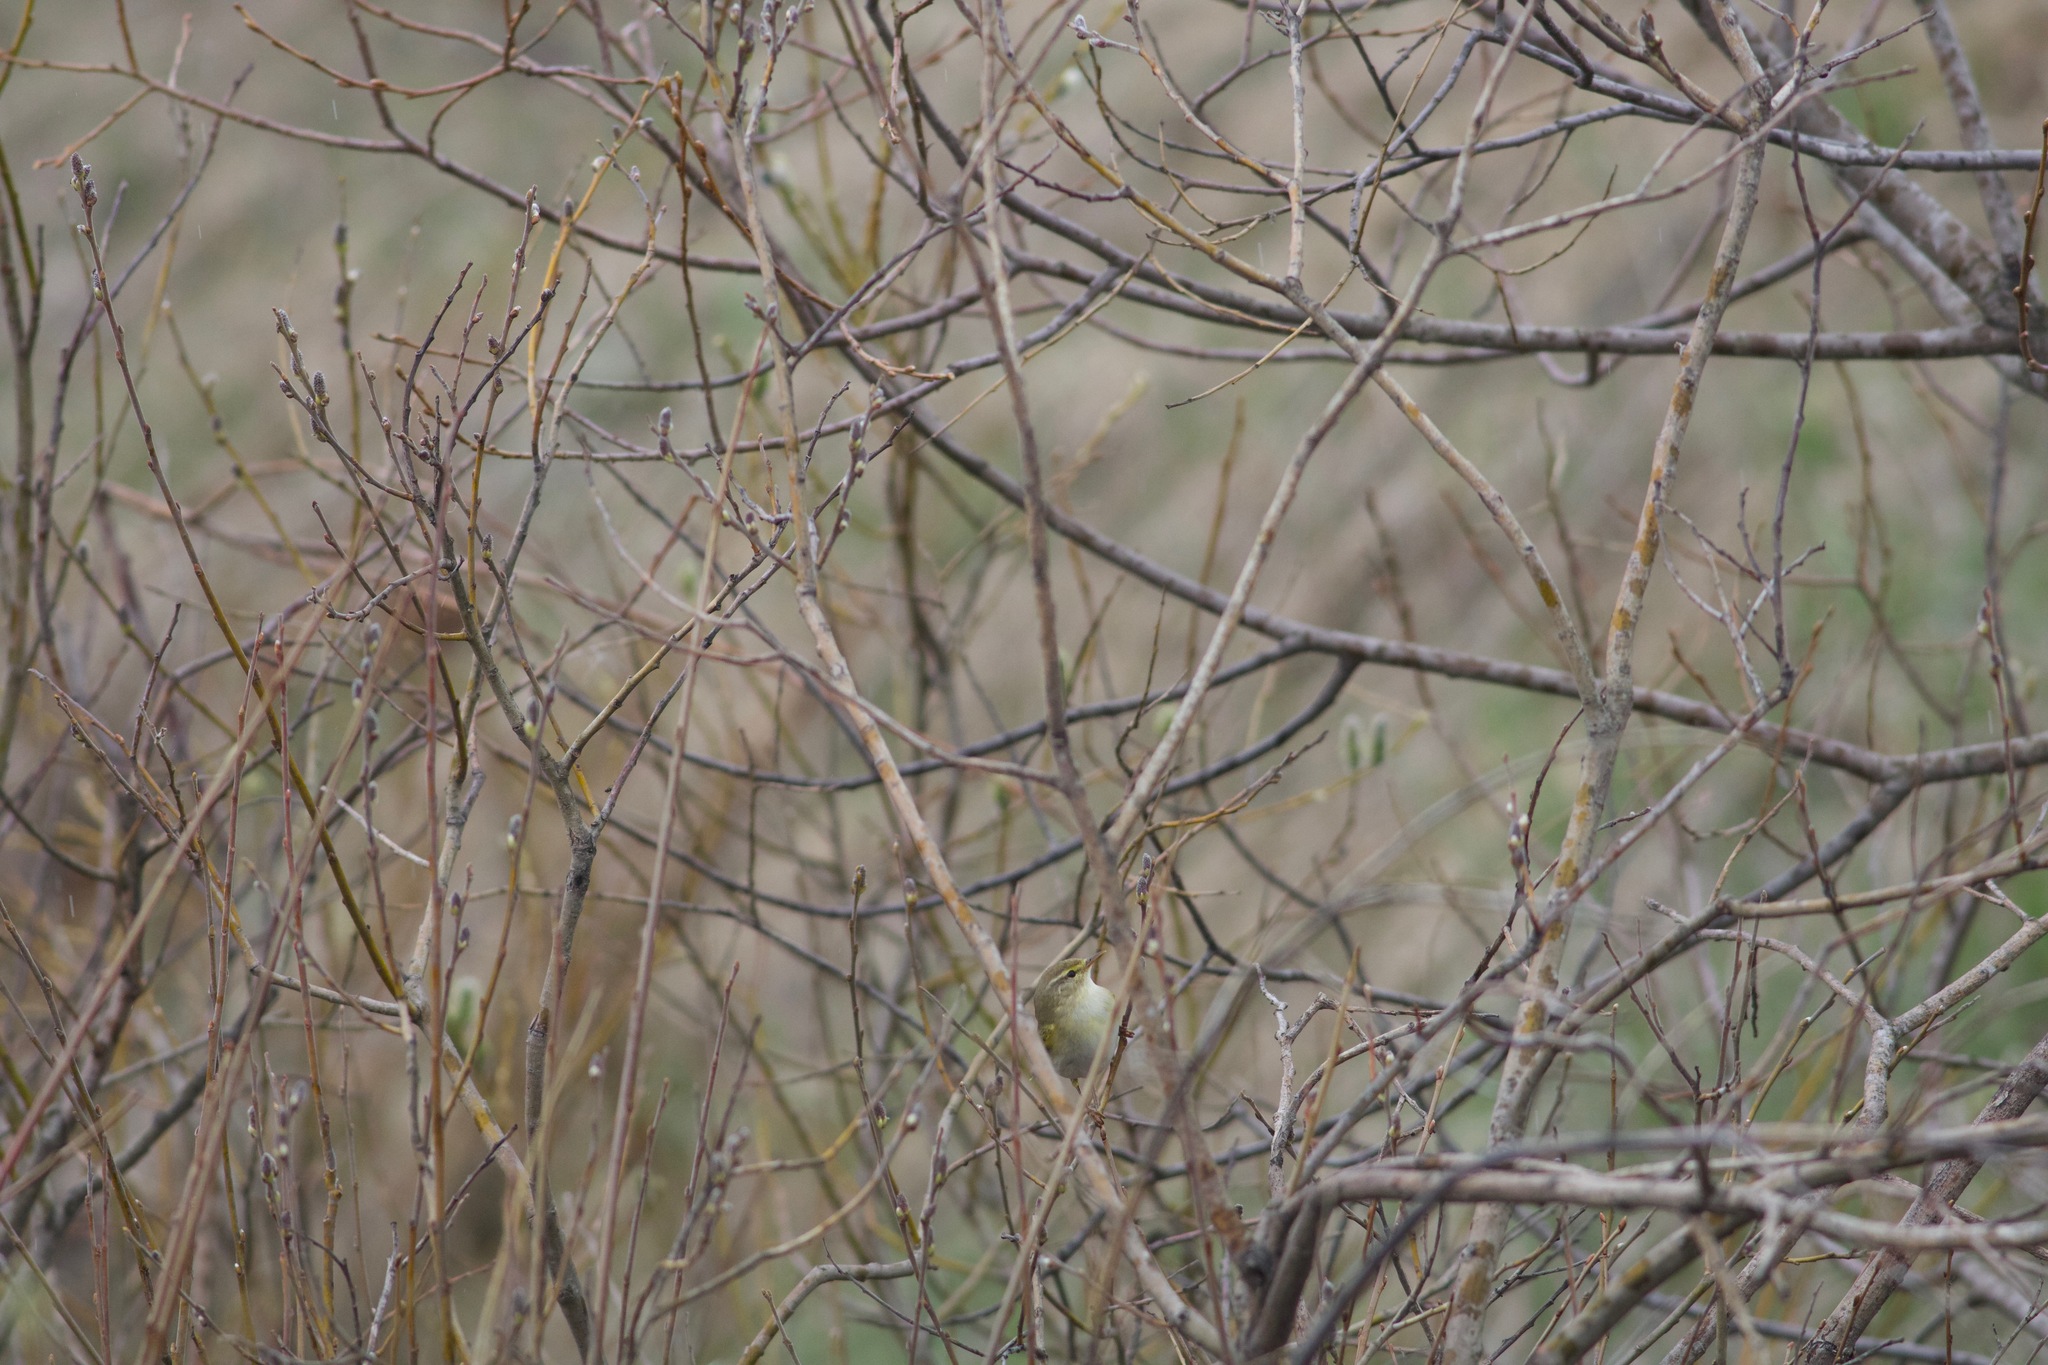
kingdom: Animalia
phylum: Chordata
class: Aves
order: Passeriformes
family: Phylloscopidae
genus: Phylloscopus
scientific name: Phylloscopus trochilus
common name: Willow warbler
